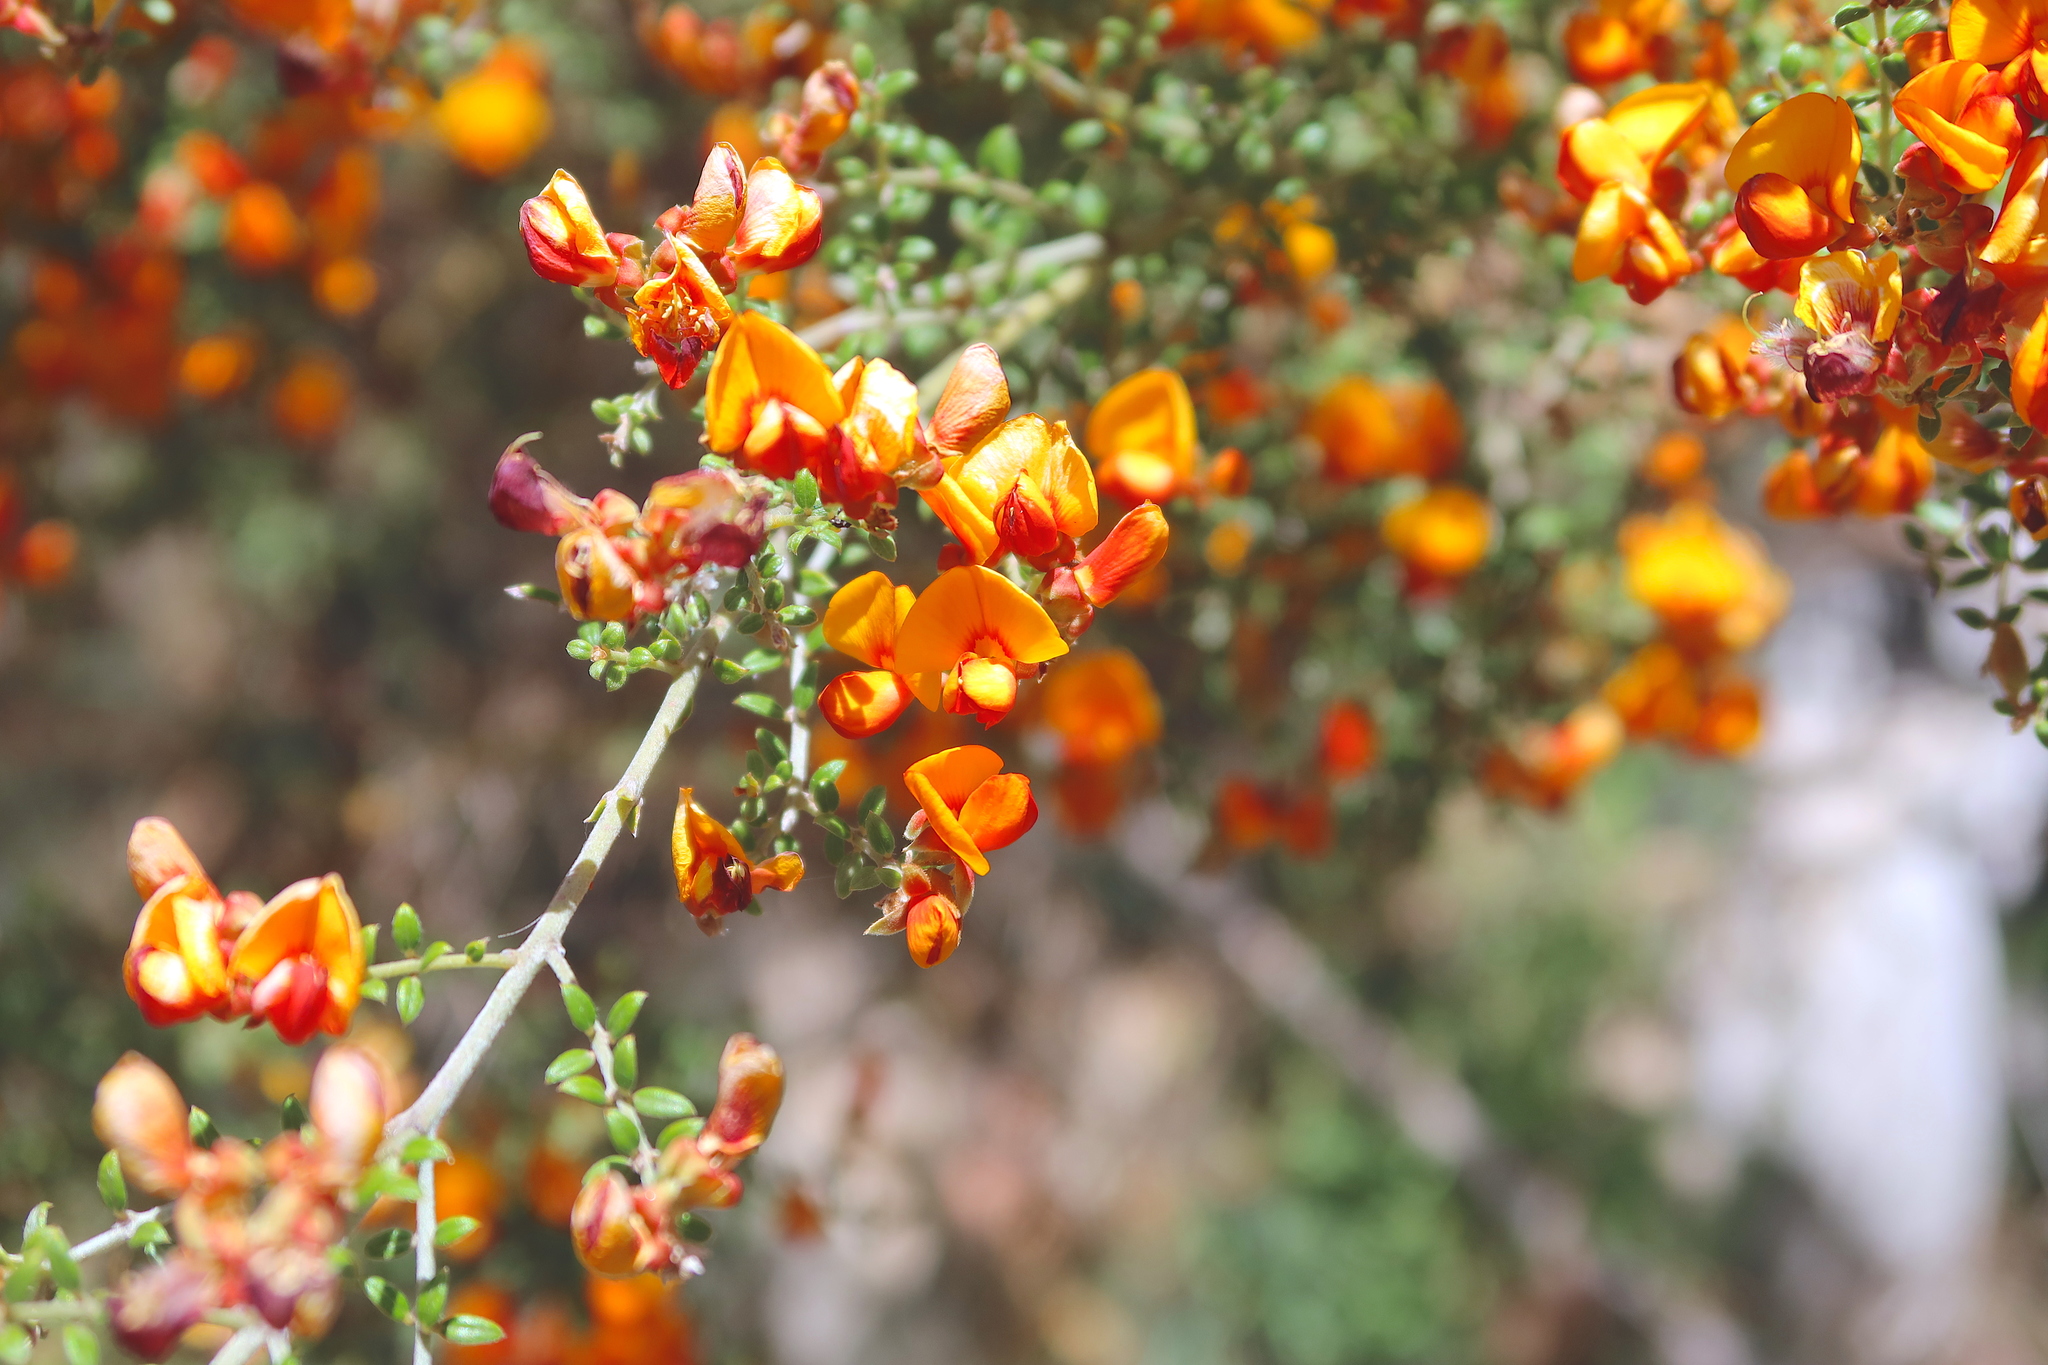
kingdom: Plantae
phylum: Tracheophyta
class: Magnoliopsida
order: Fabales
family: Fabaceae
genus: Oxylobium
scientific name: Oxylobium oxylobioides
